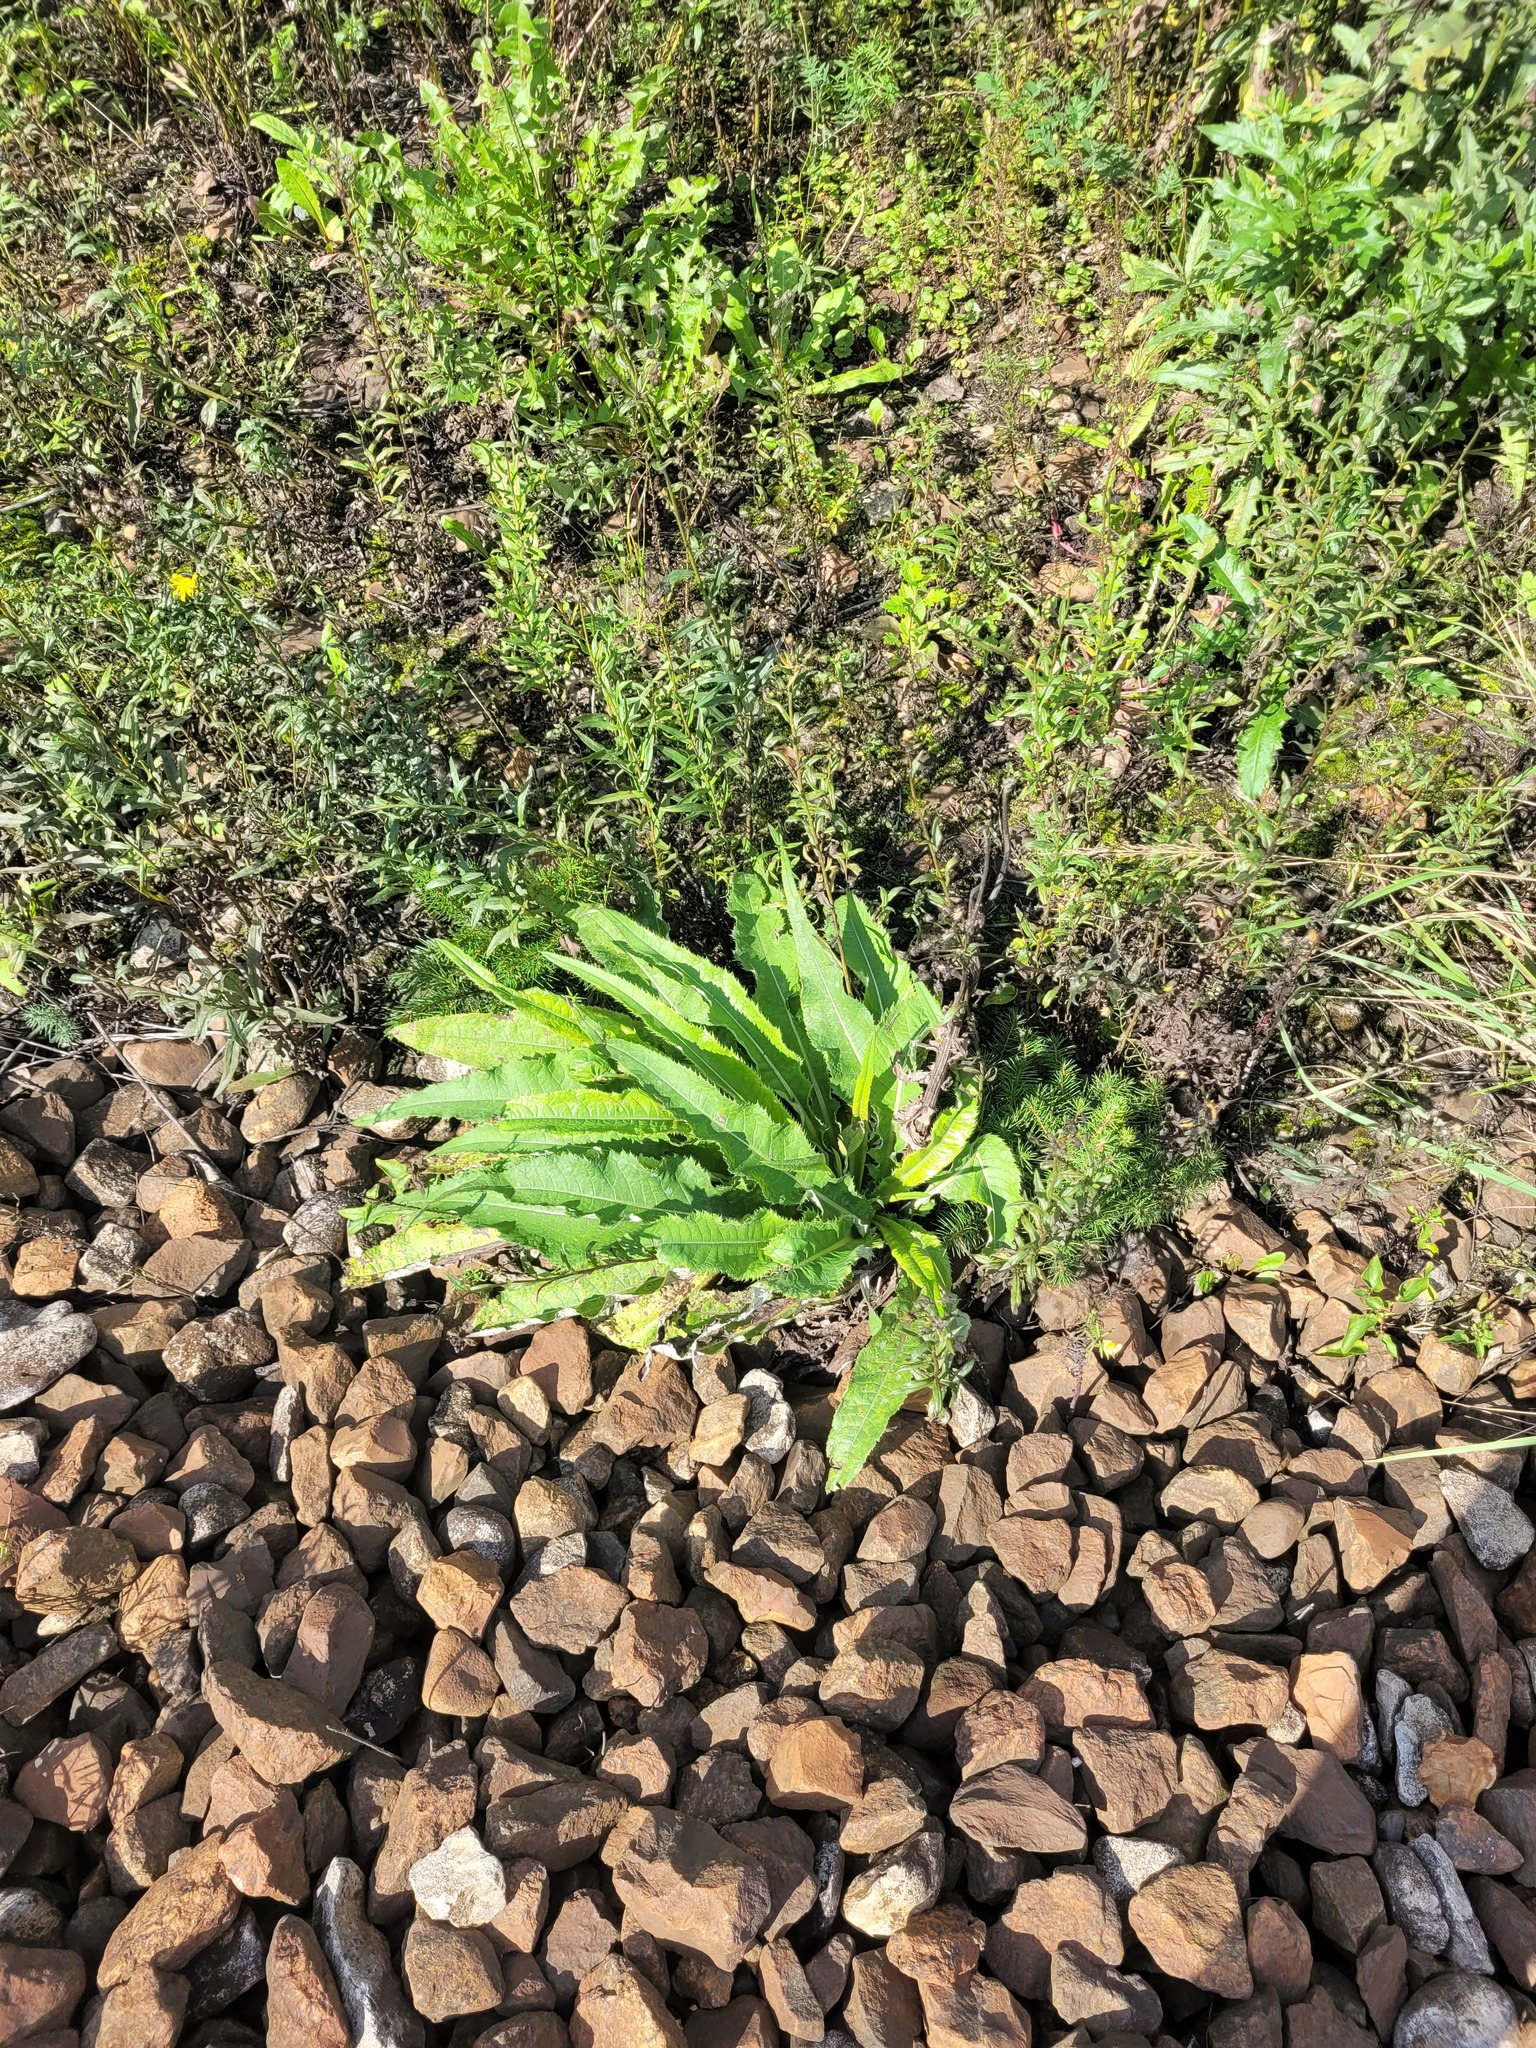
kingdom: Plantae
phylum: Tracheophyta
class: Magnoliopsida
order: Asterales
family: Asteraceae
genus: Cirsium
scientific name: Cirsium heterophyllum
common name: Melancholy thistle
